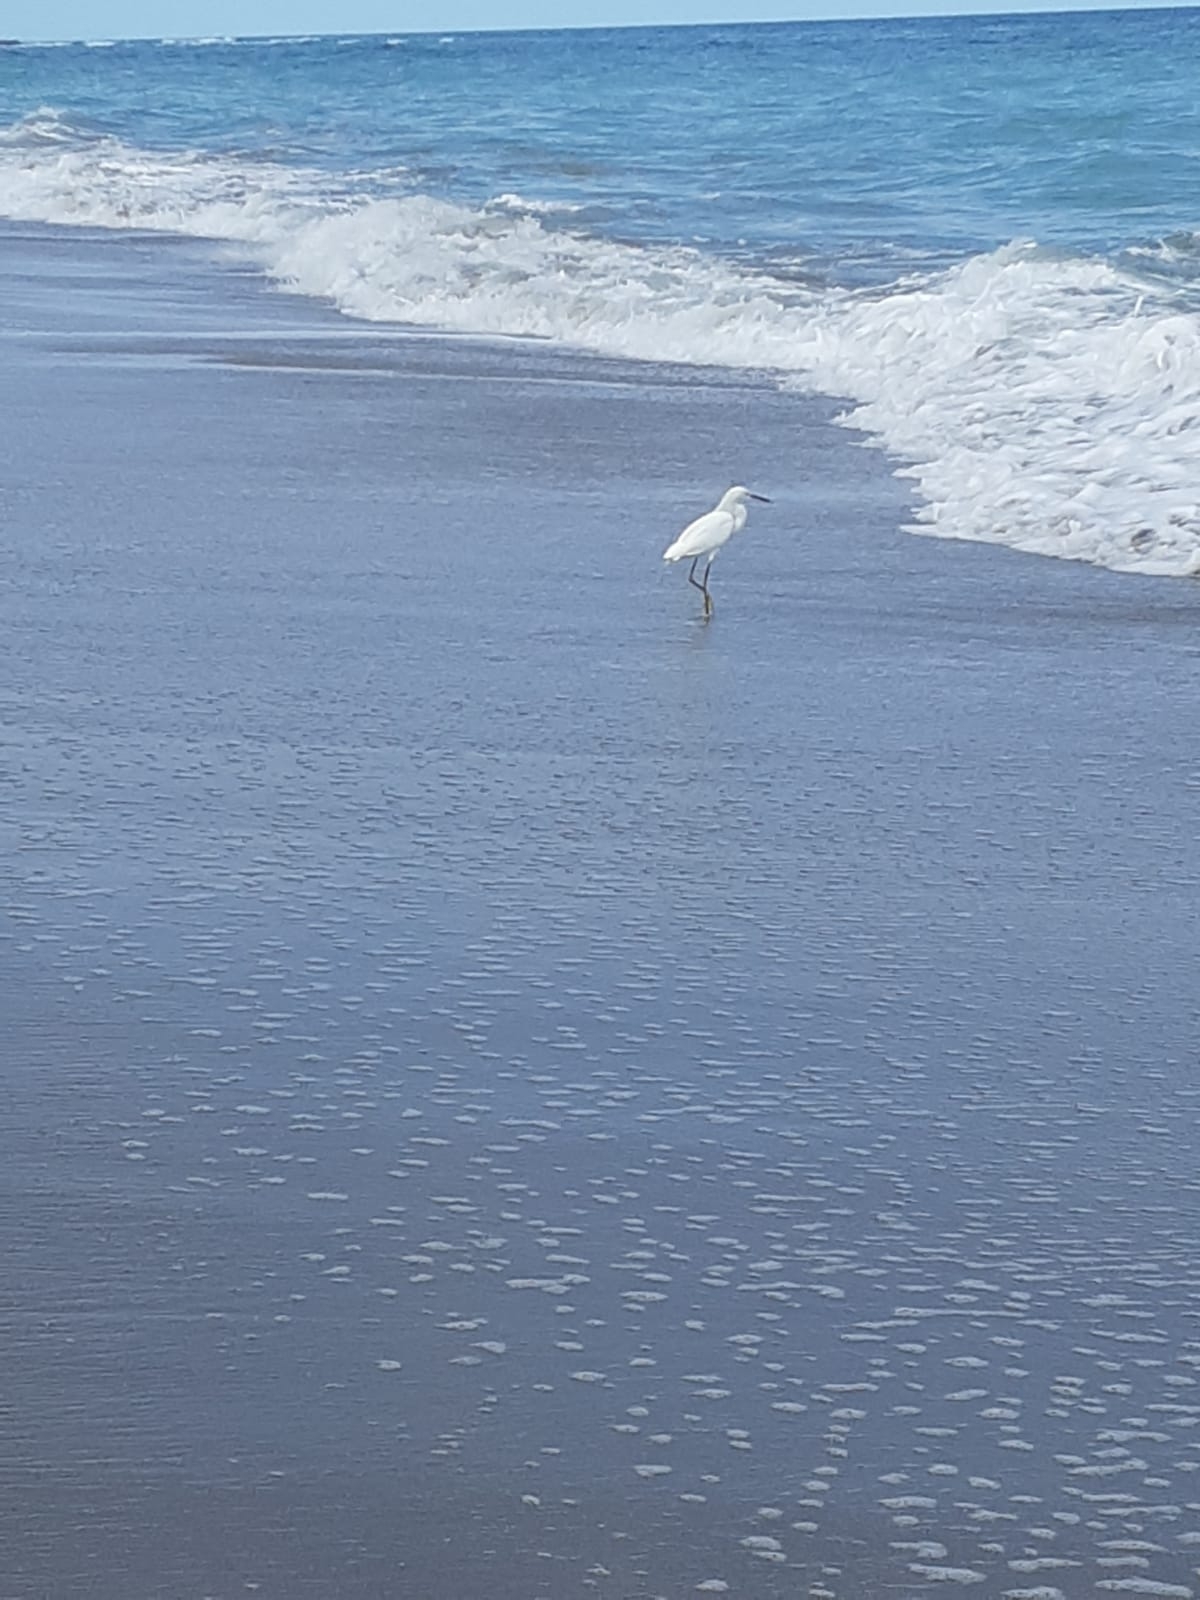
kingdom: Animalia
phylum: Chordata
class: Aves
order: Pelecaniformes
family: Ardeidae
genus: Egretta
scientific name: Egretta thula
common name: Snowy egret
